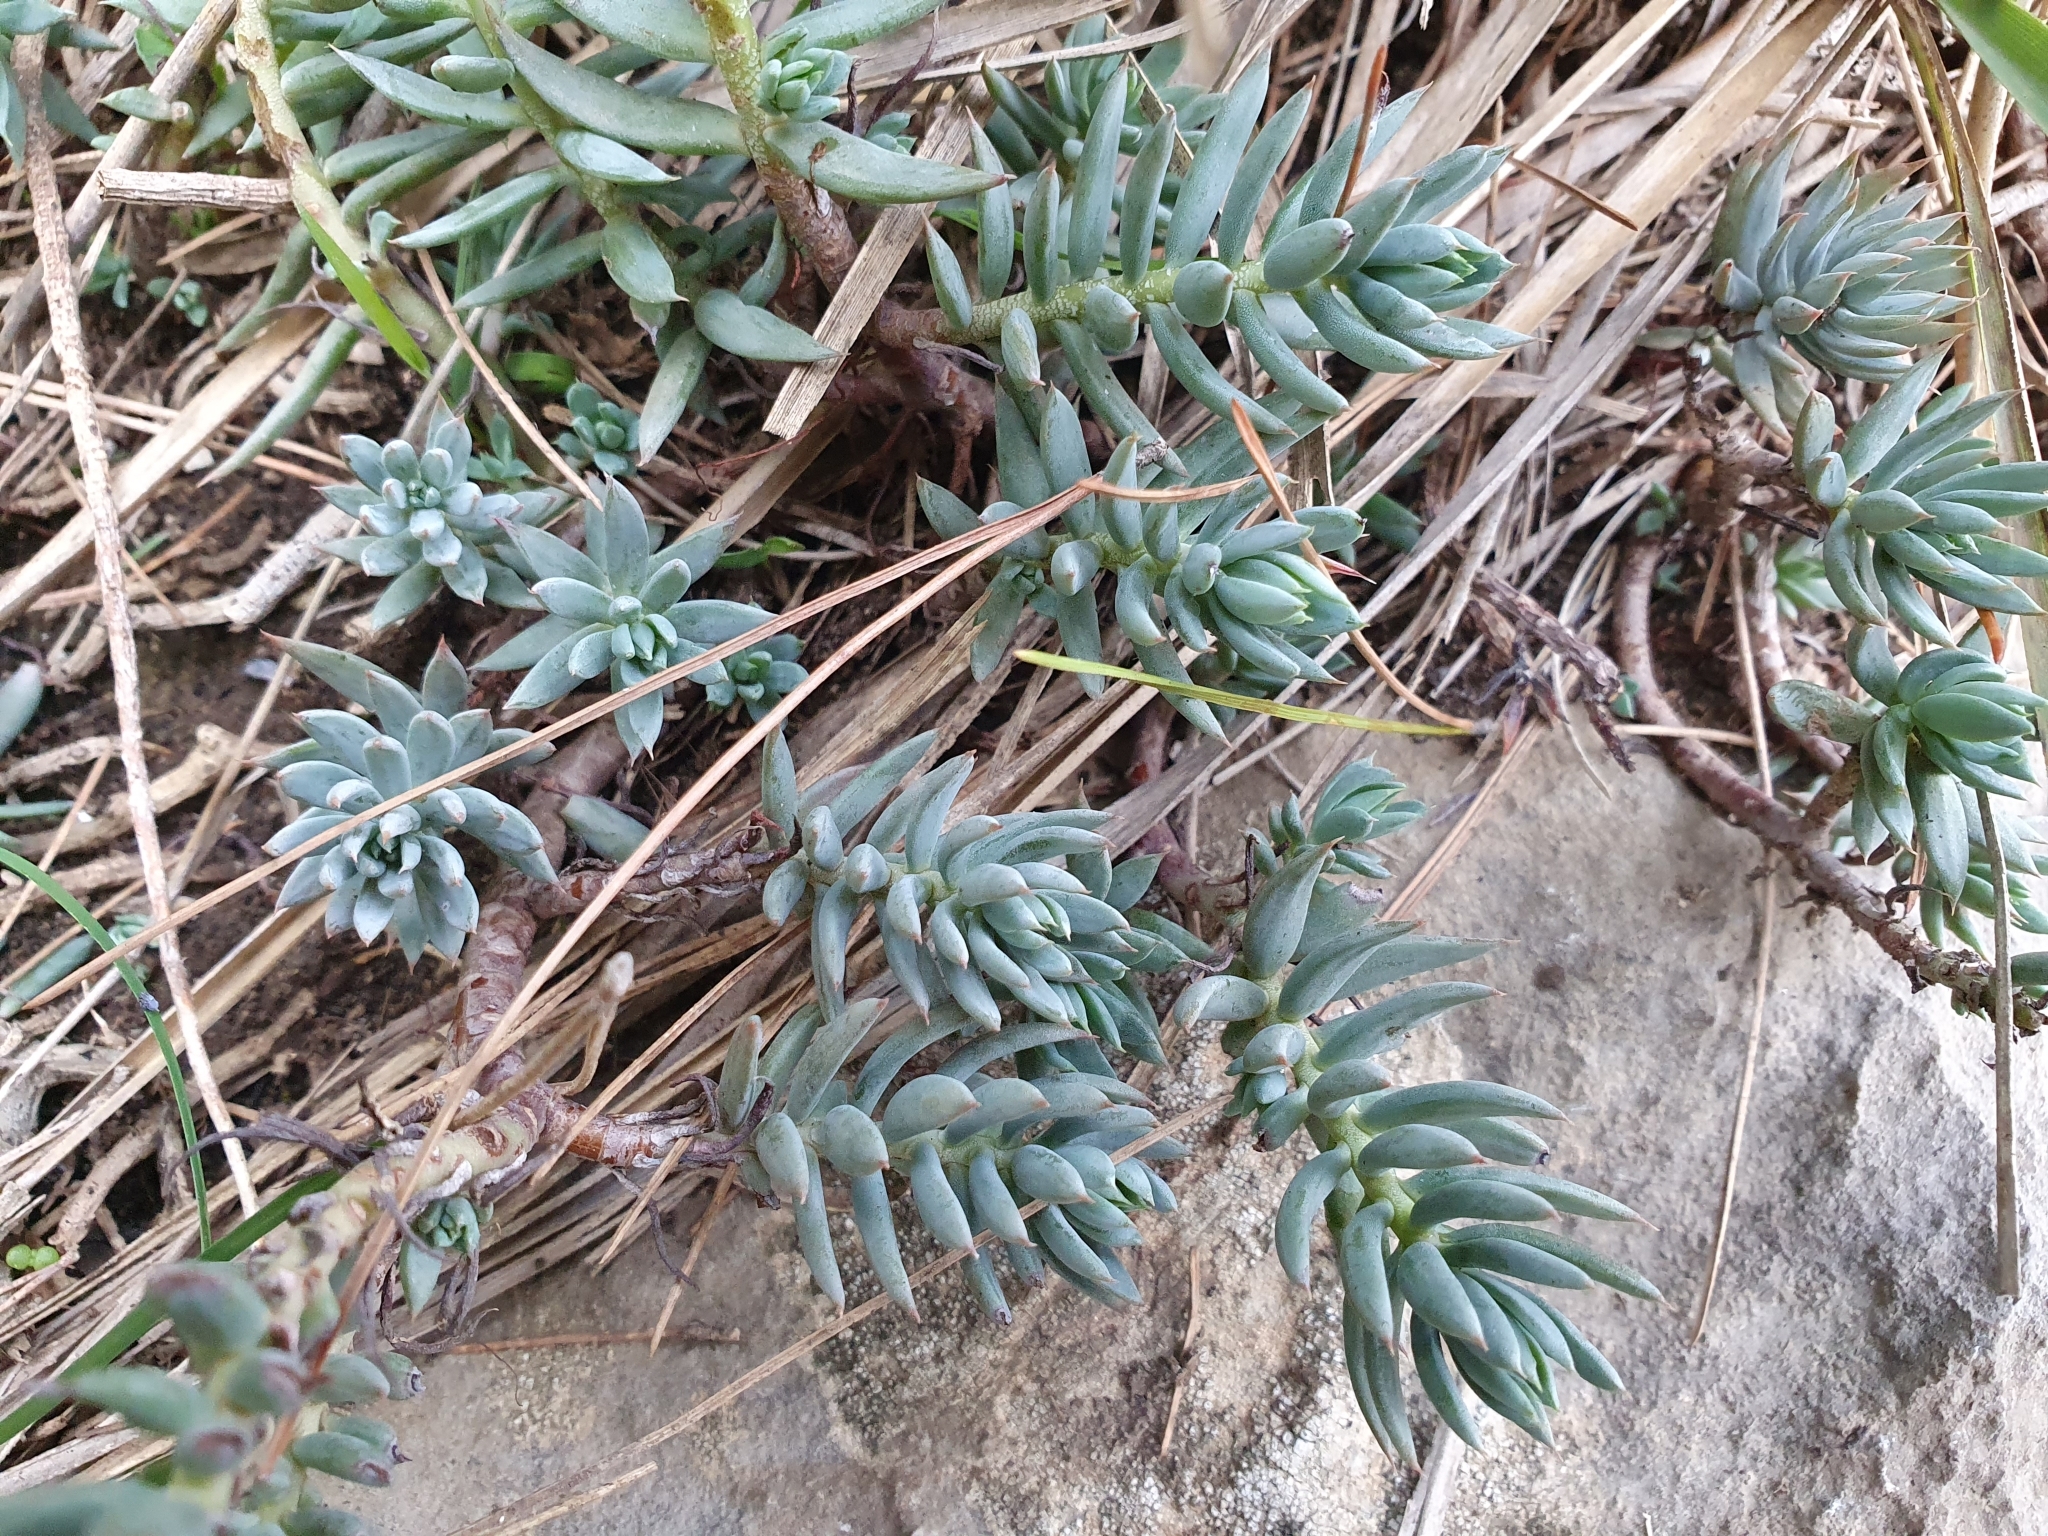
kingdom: Plantae
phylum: Tracheophyta
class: Magnoliopsida
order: Saxifragales
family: Crassulaceae
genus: Petrosedum
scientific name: Petrosedum sediforme
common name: Pale stonecrop
